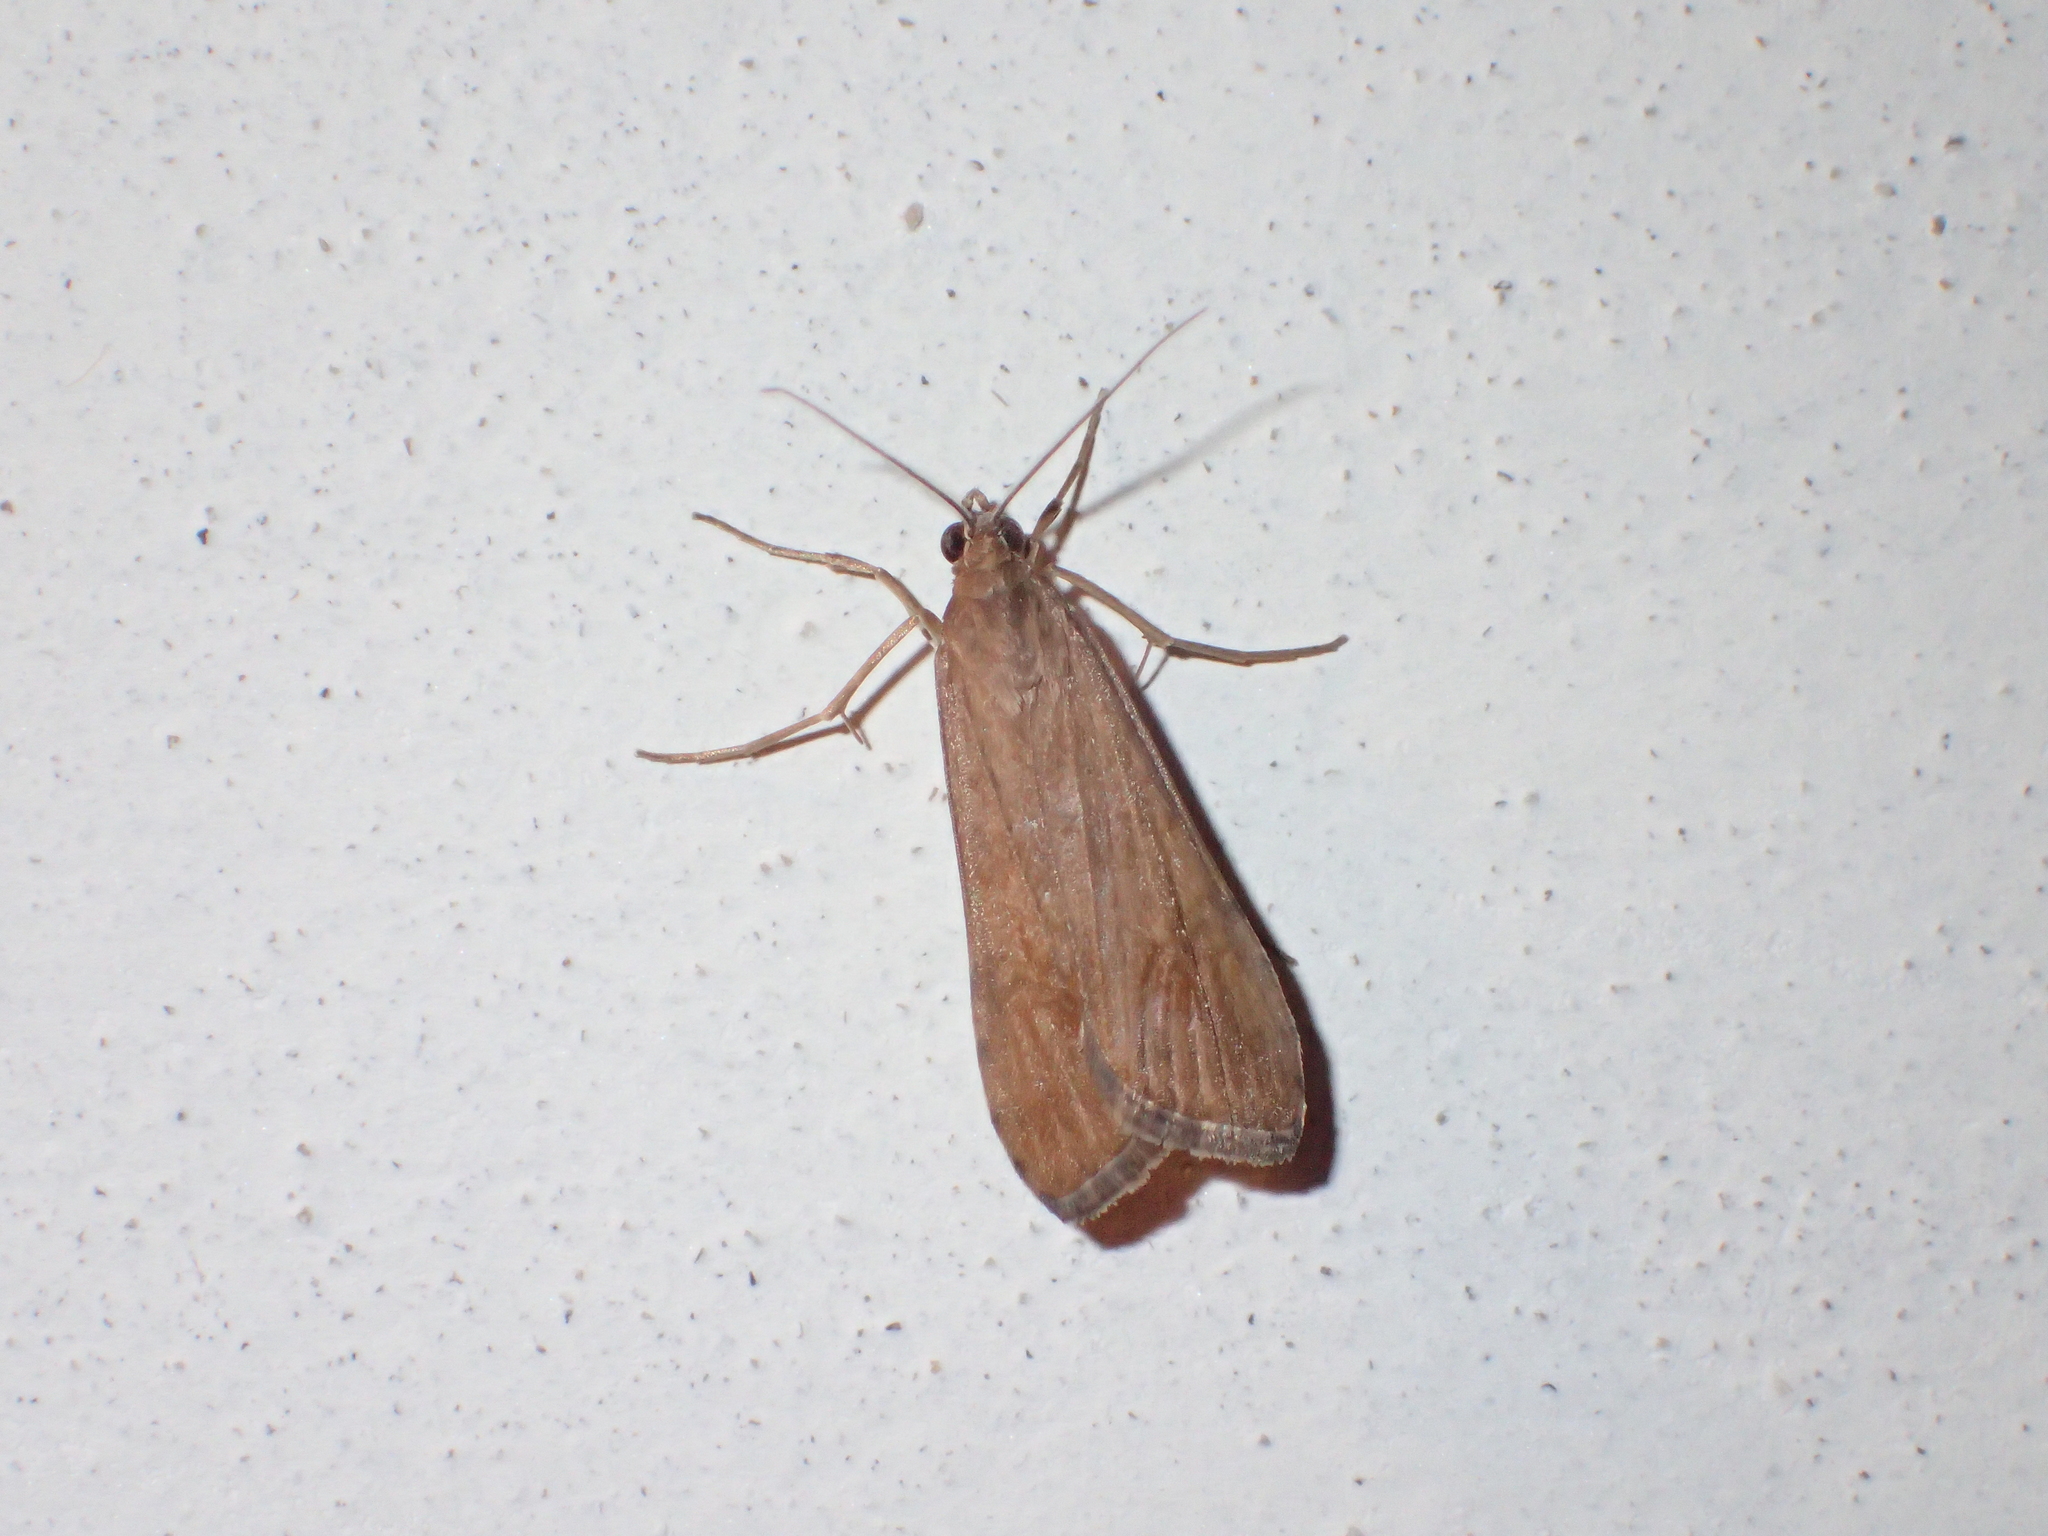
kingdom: Animalia
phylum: Arthropoda
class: Insecta
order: Lepidoptera
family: Crambidae
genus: Nomophila
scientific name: Nomophila noctuella
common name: Rush veneer
